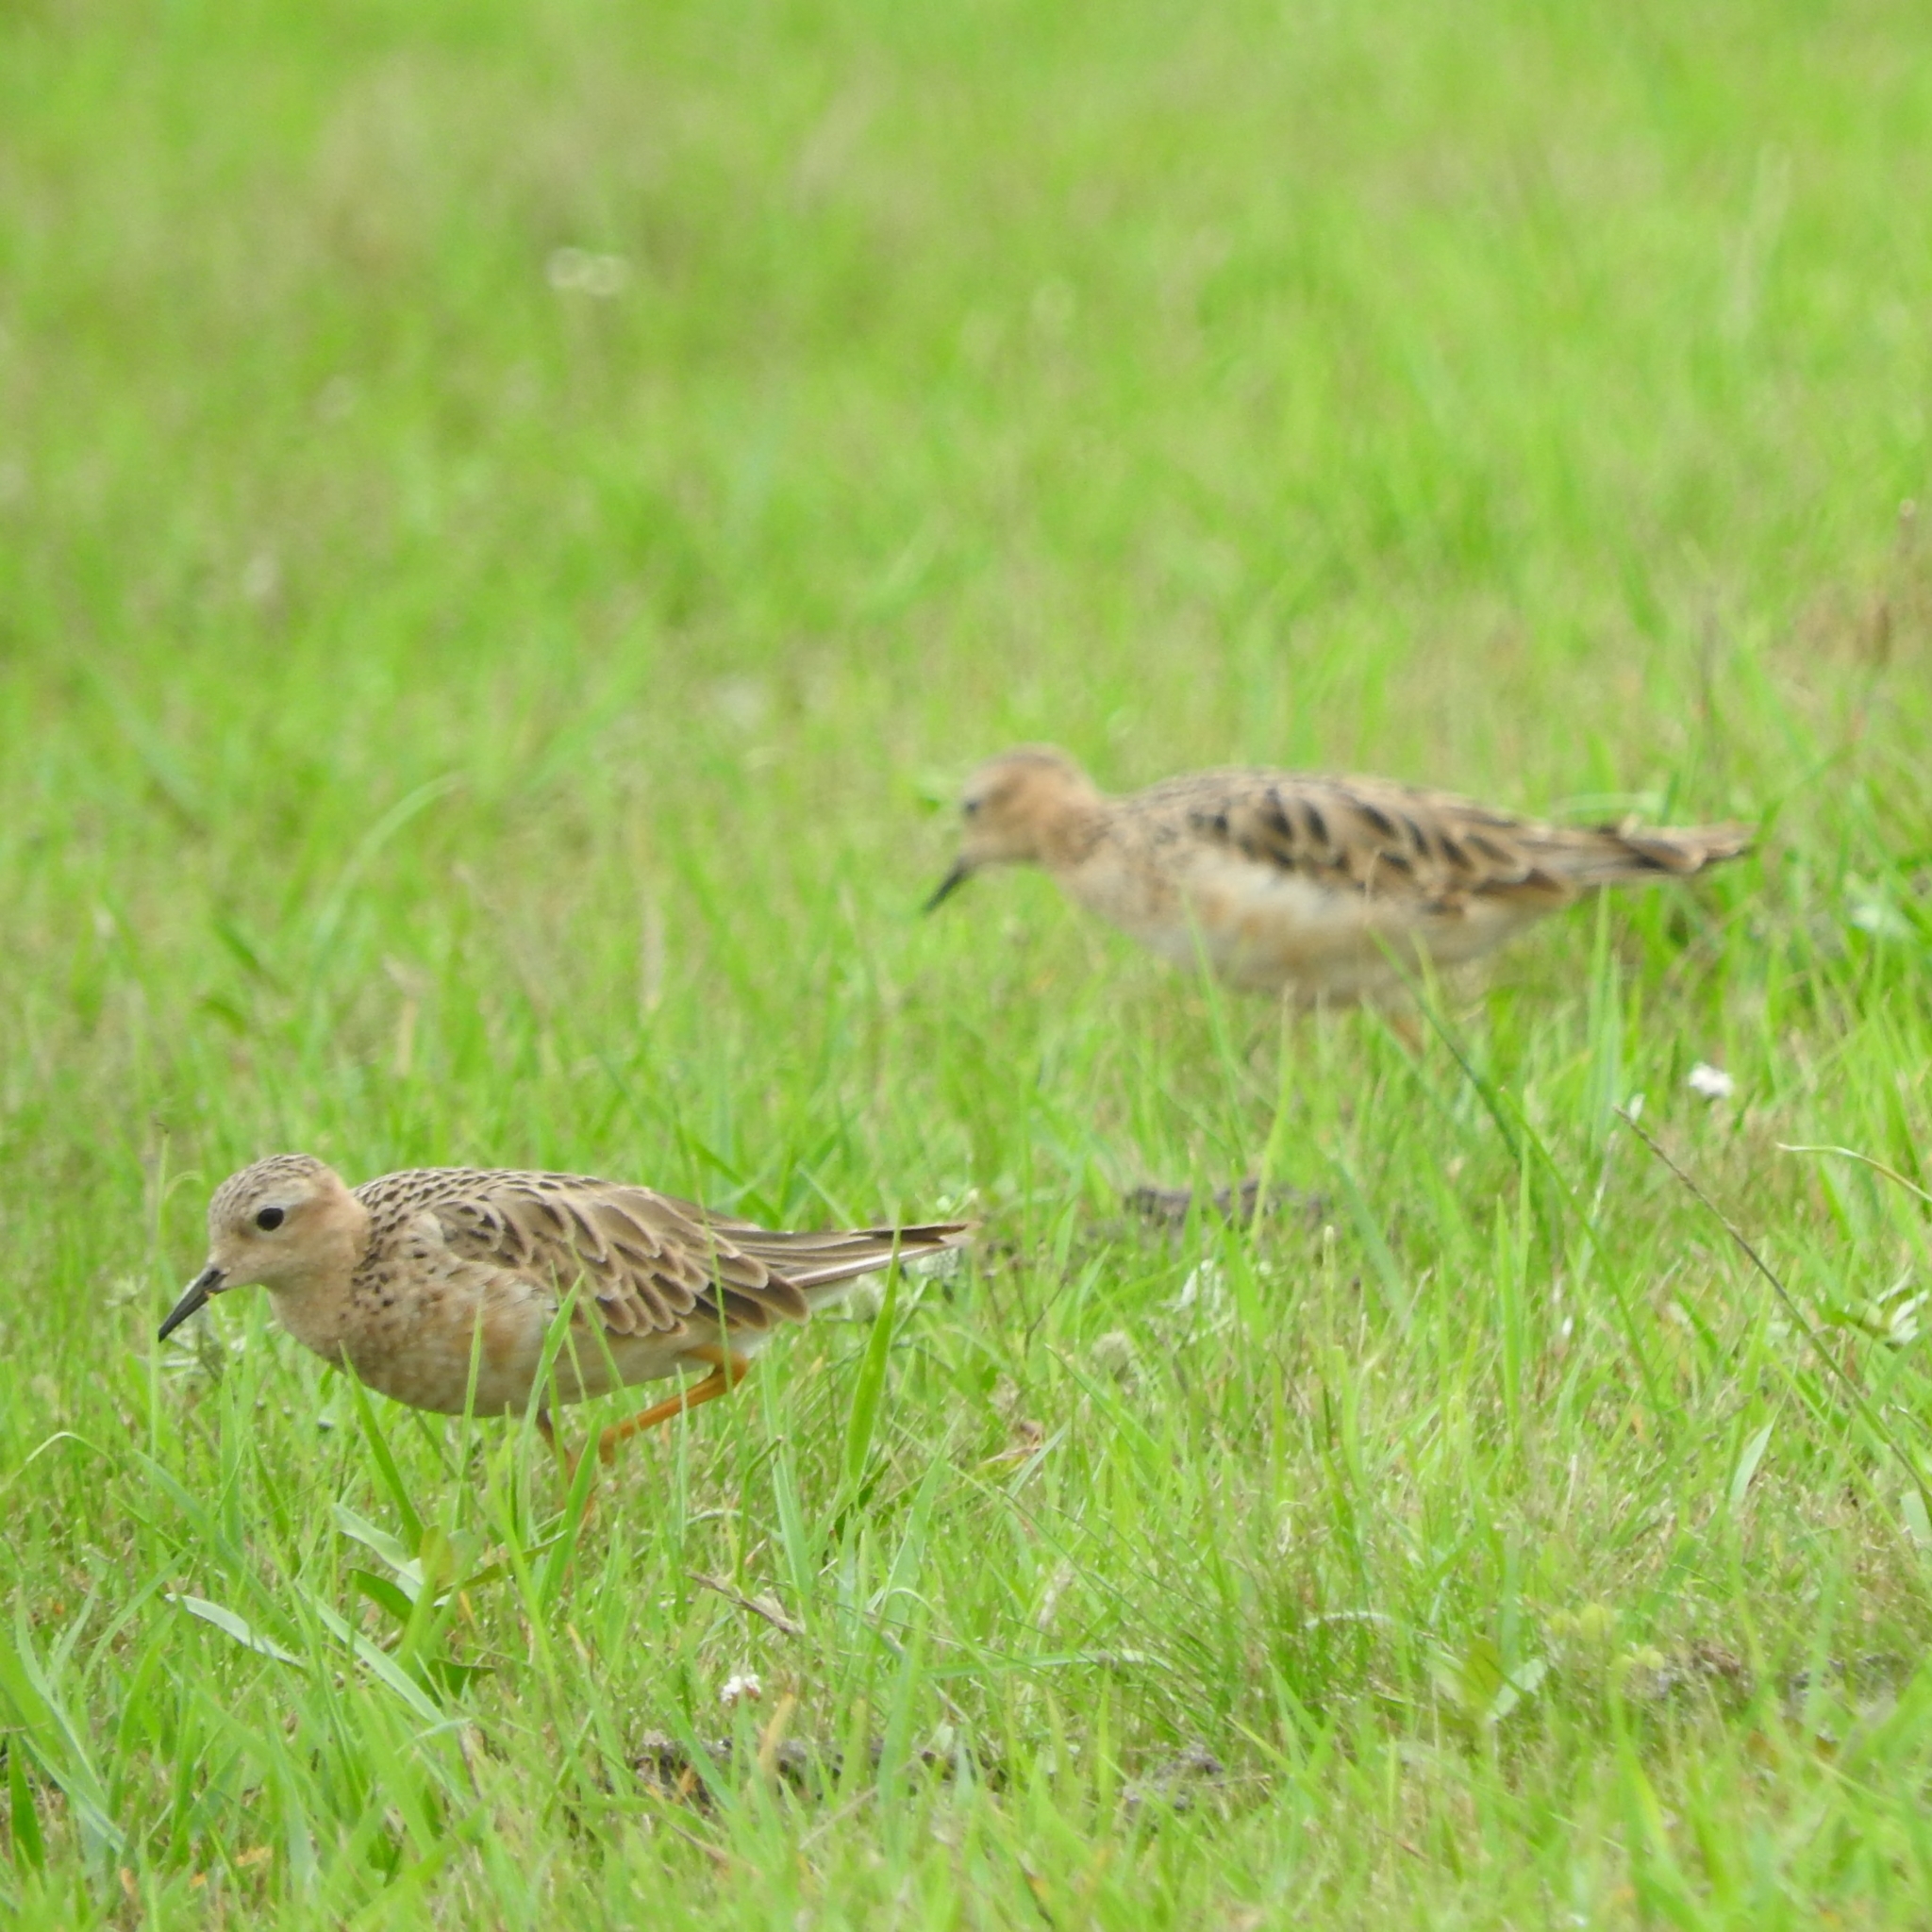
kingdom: Animalia
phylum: Chordata
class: Aves
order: Charadriiformes
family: Scolopacidae
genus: Calidris
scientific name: Calidris subruficollis
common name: Buff-breasted sandpiper
